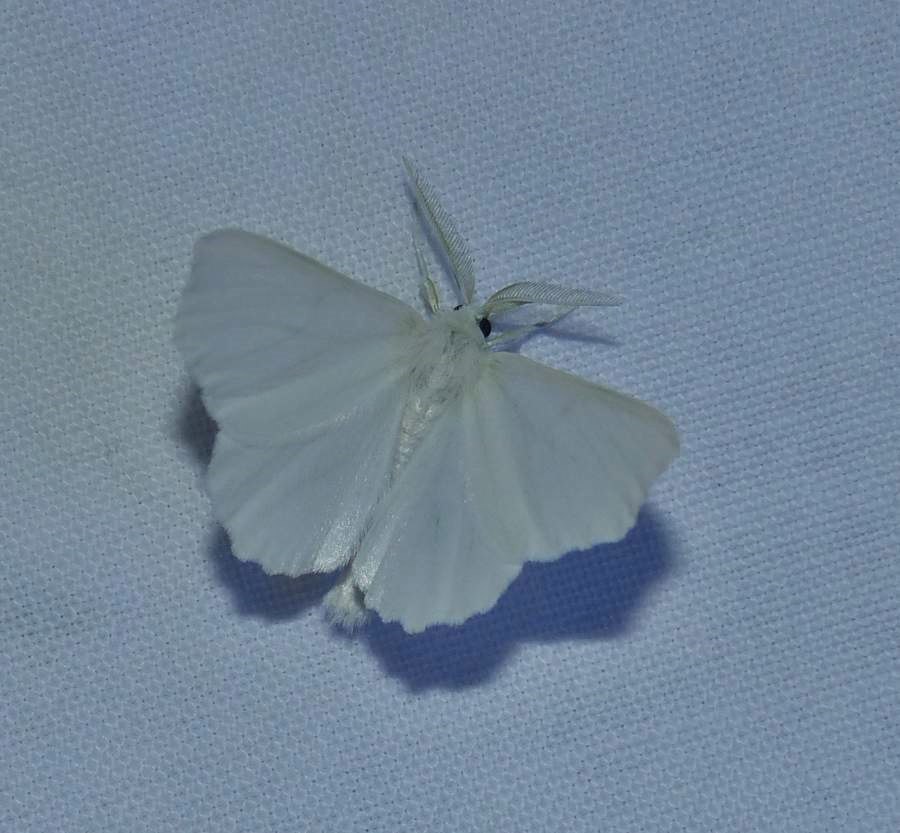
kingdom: Animalia
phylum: Arthropoda
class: Insecta
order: Lepidoptera
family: Geometridae
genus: Ennomos
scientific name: Ennomos subsignaria
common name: Elm spanworm
